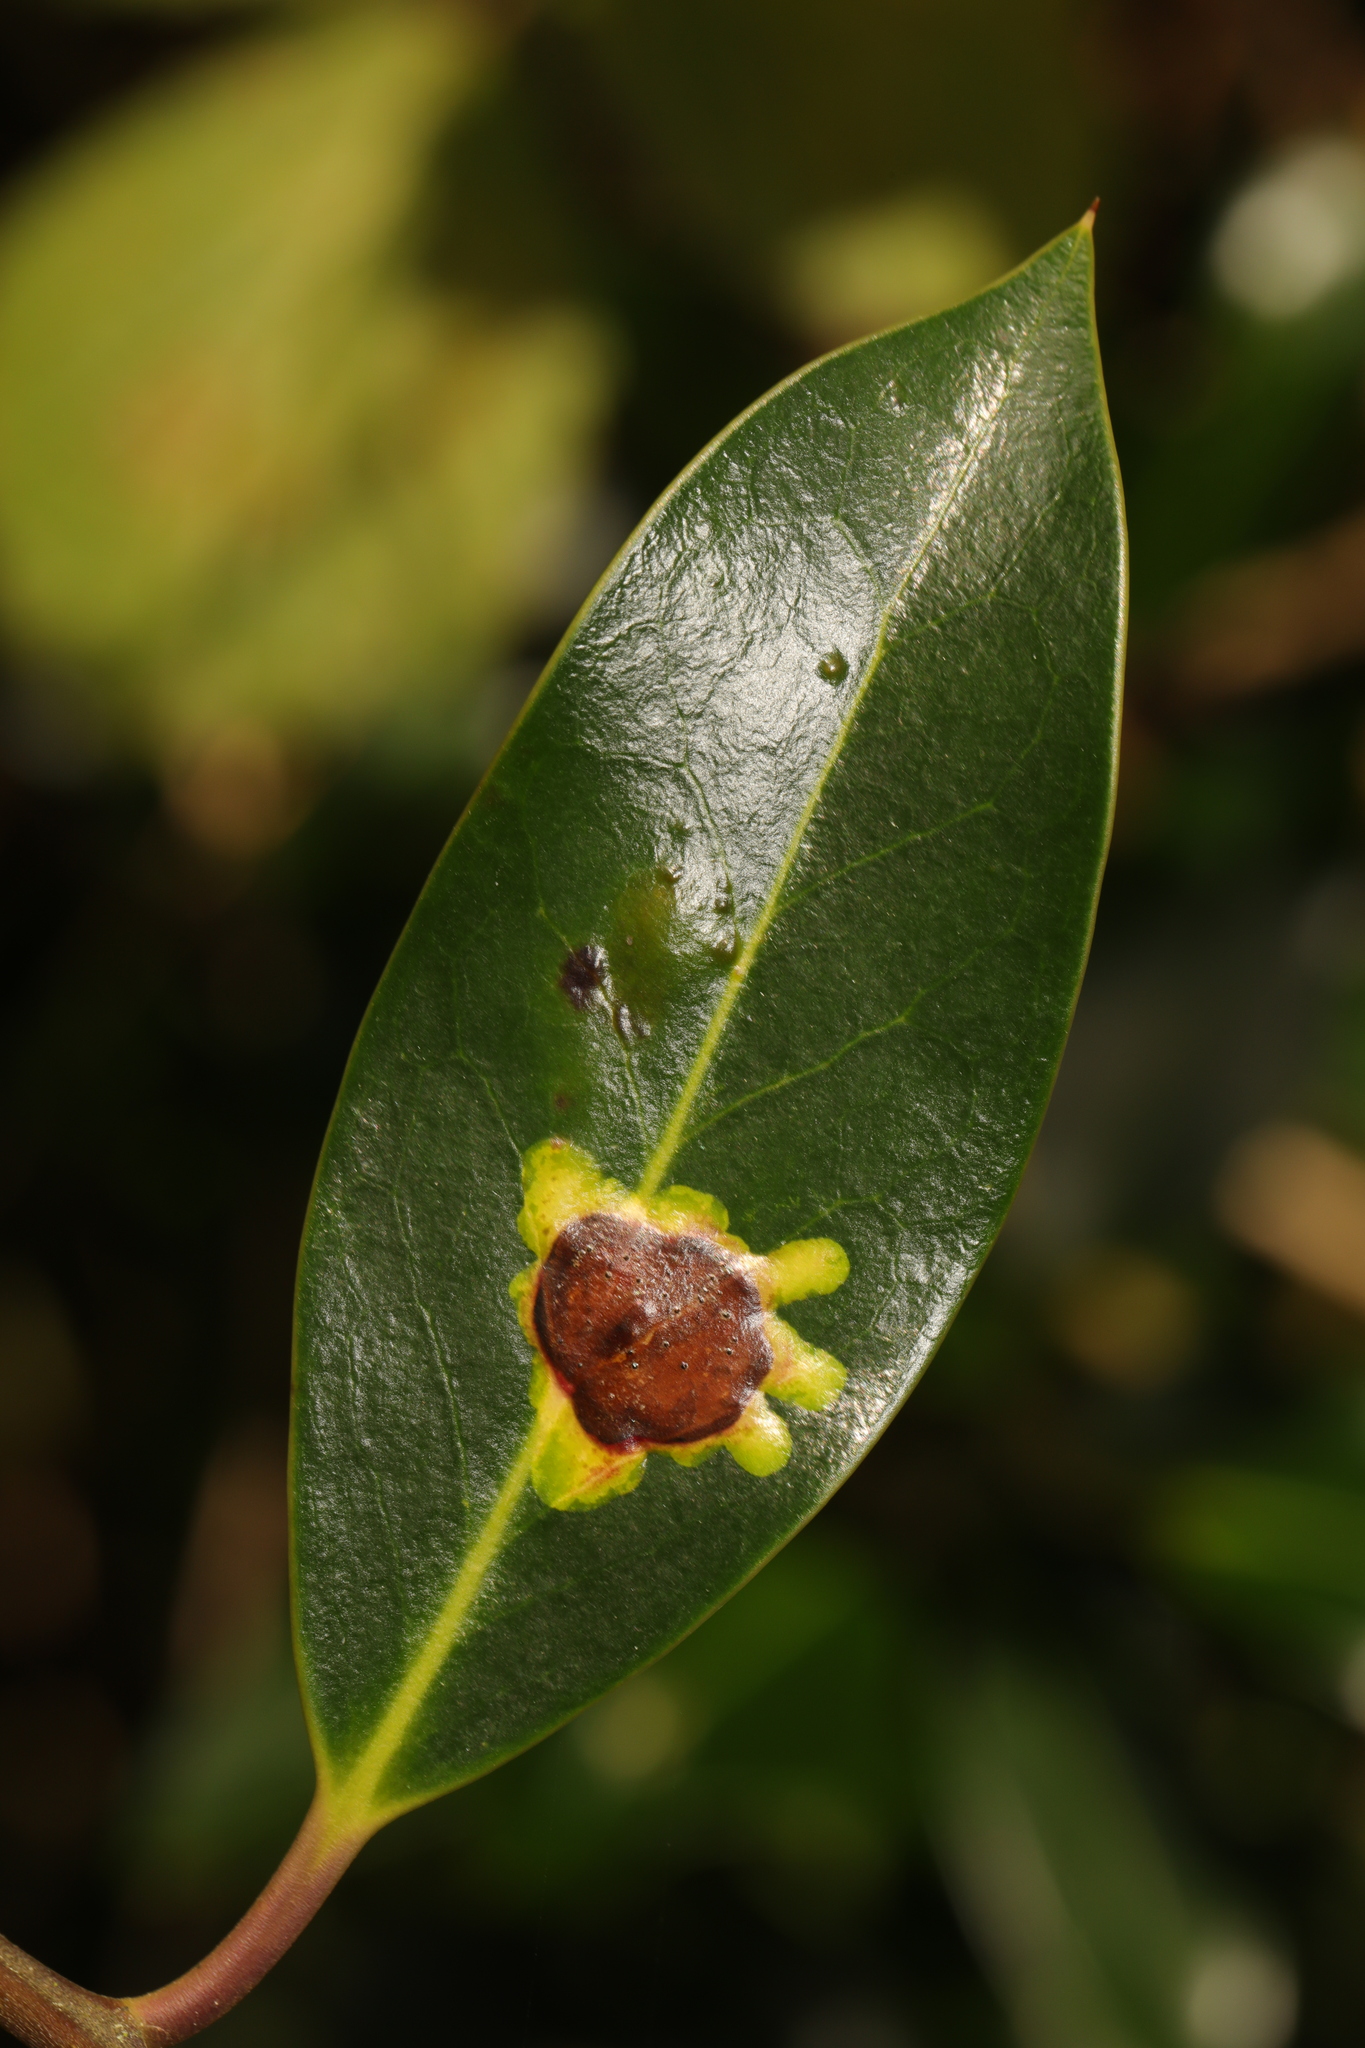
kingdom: Animalia
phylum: Arthropoda
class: Insecta
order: Diptera
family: Agromyzidae
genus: Phytomyza
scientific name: Phytomyza ilicis
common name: Holly leafminer
